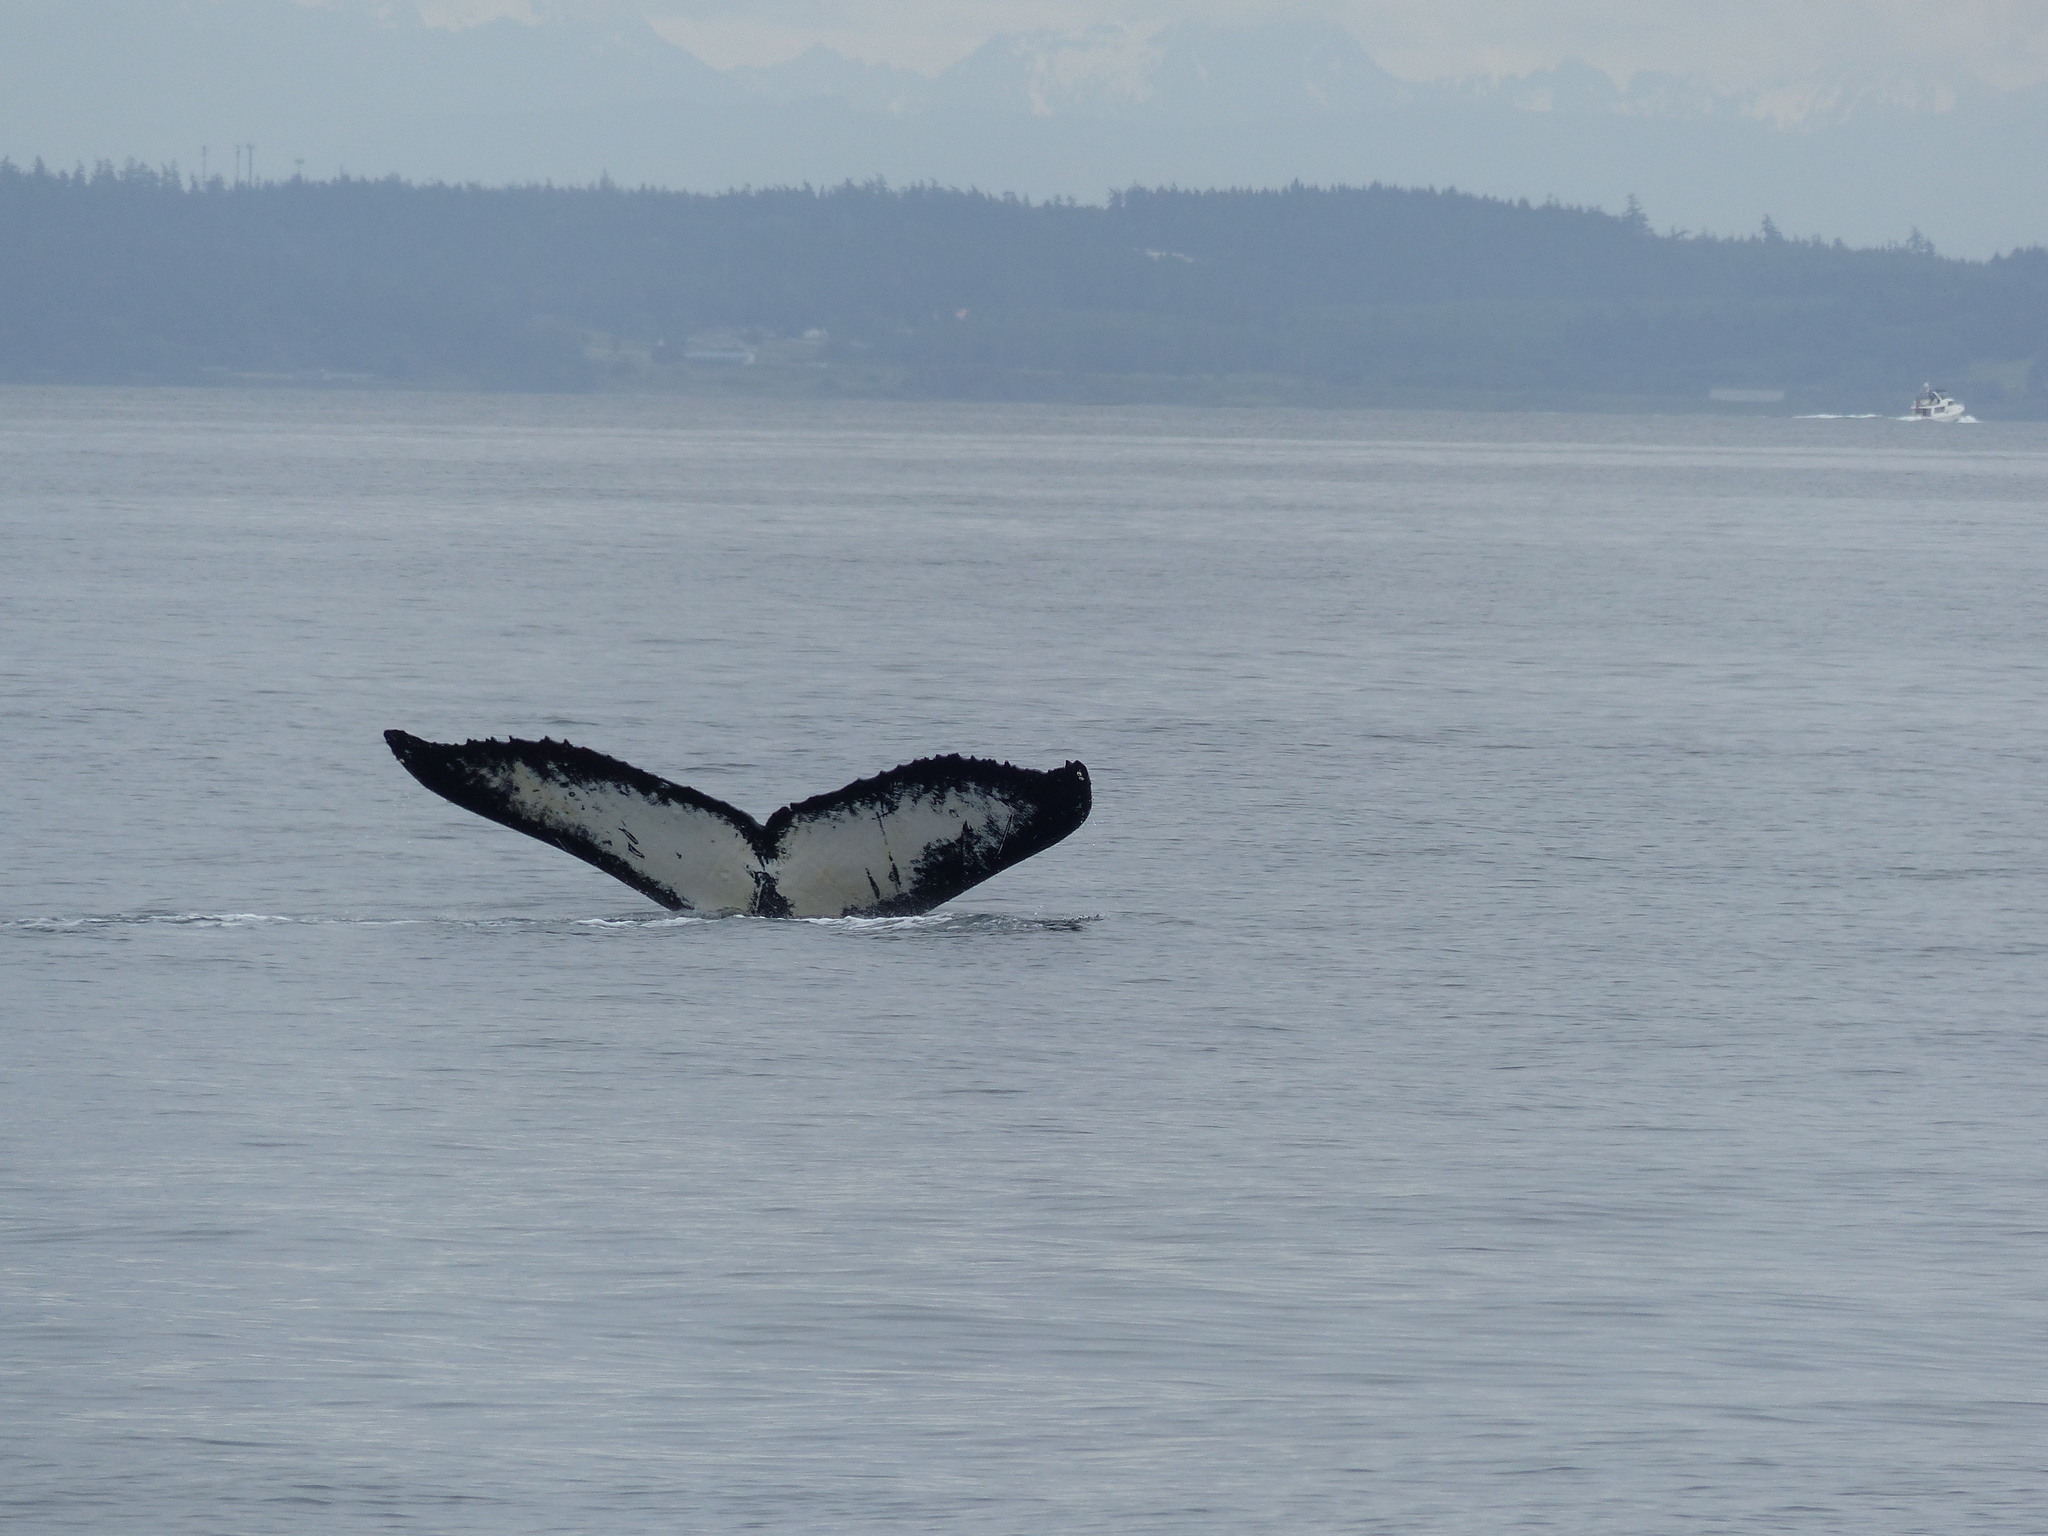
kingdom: Animalia
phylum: Chordata
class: Mammalia
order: Cetacea
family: Balaenopteridae
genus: Megaptera
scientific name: Megaptera novaeangliae
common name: Humpback whale
